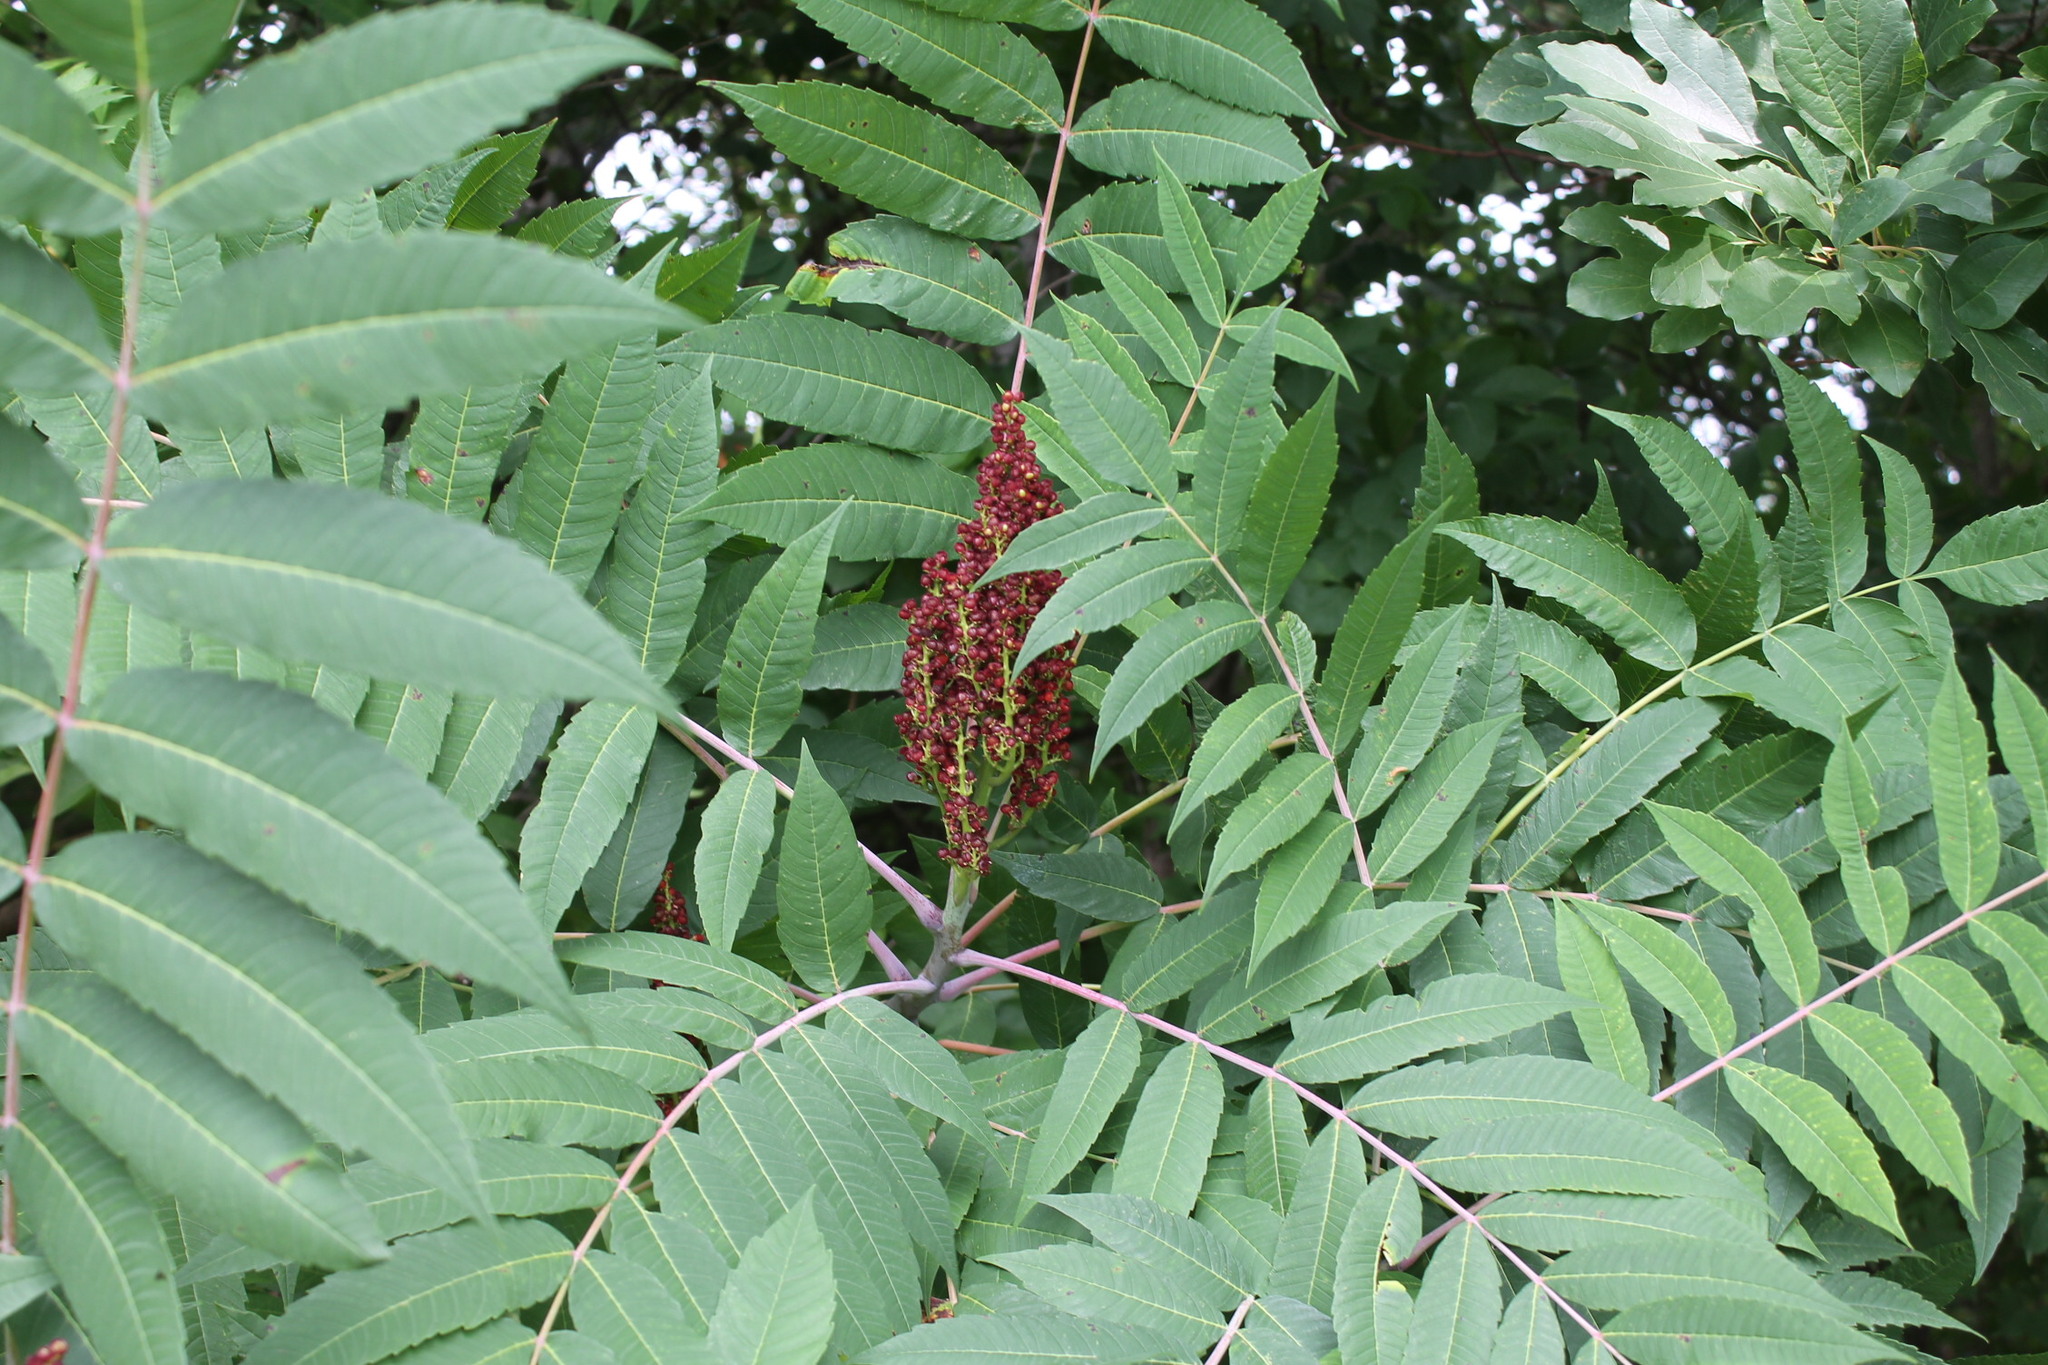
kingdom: Plantae
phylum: Tracheophyta
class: Magnoliopsida
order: Sapindales
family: Anacardiaceae
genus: Rhus
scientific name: Rhus glabra
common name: Scarlet sumac
